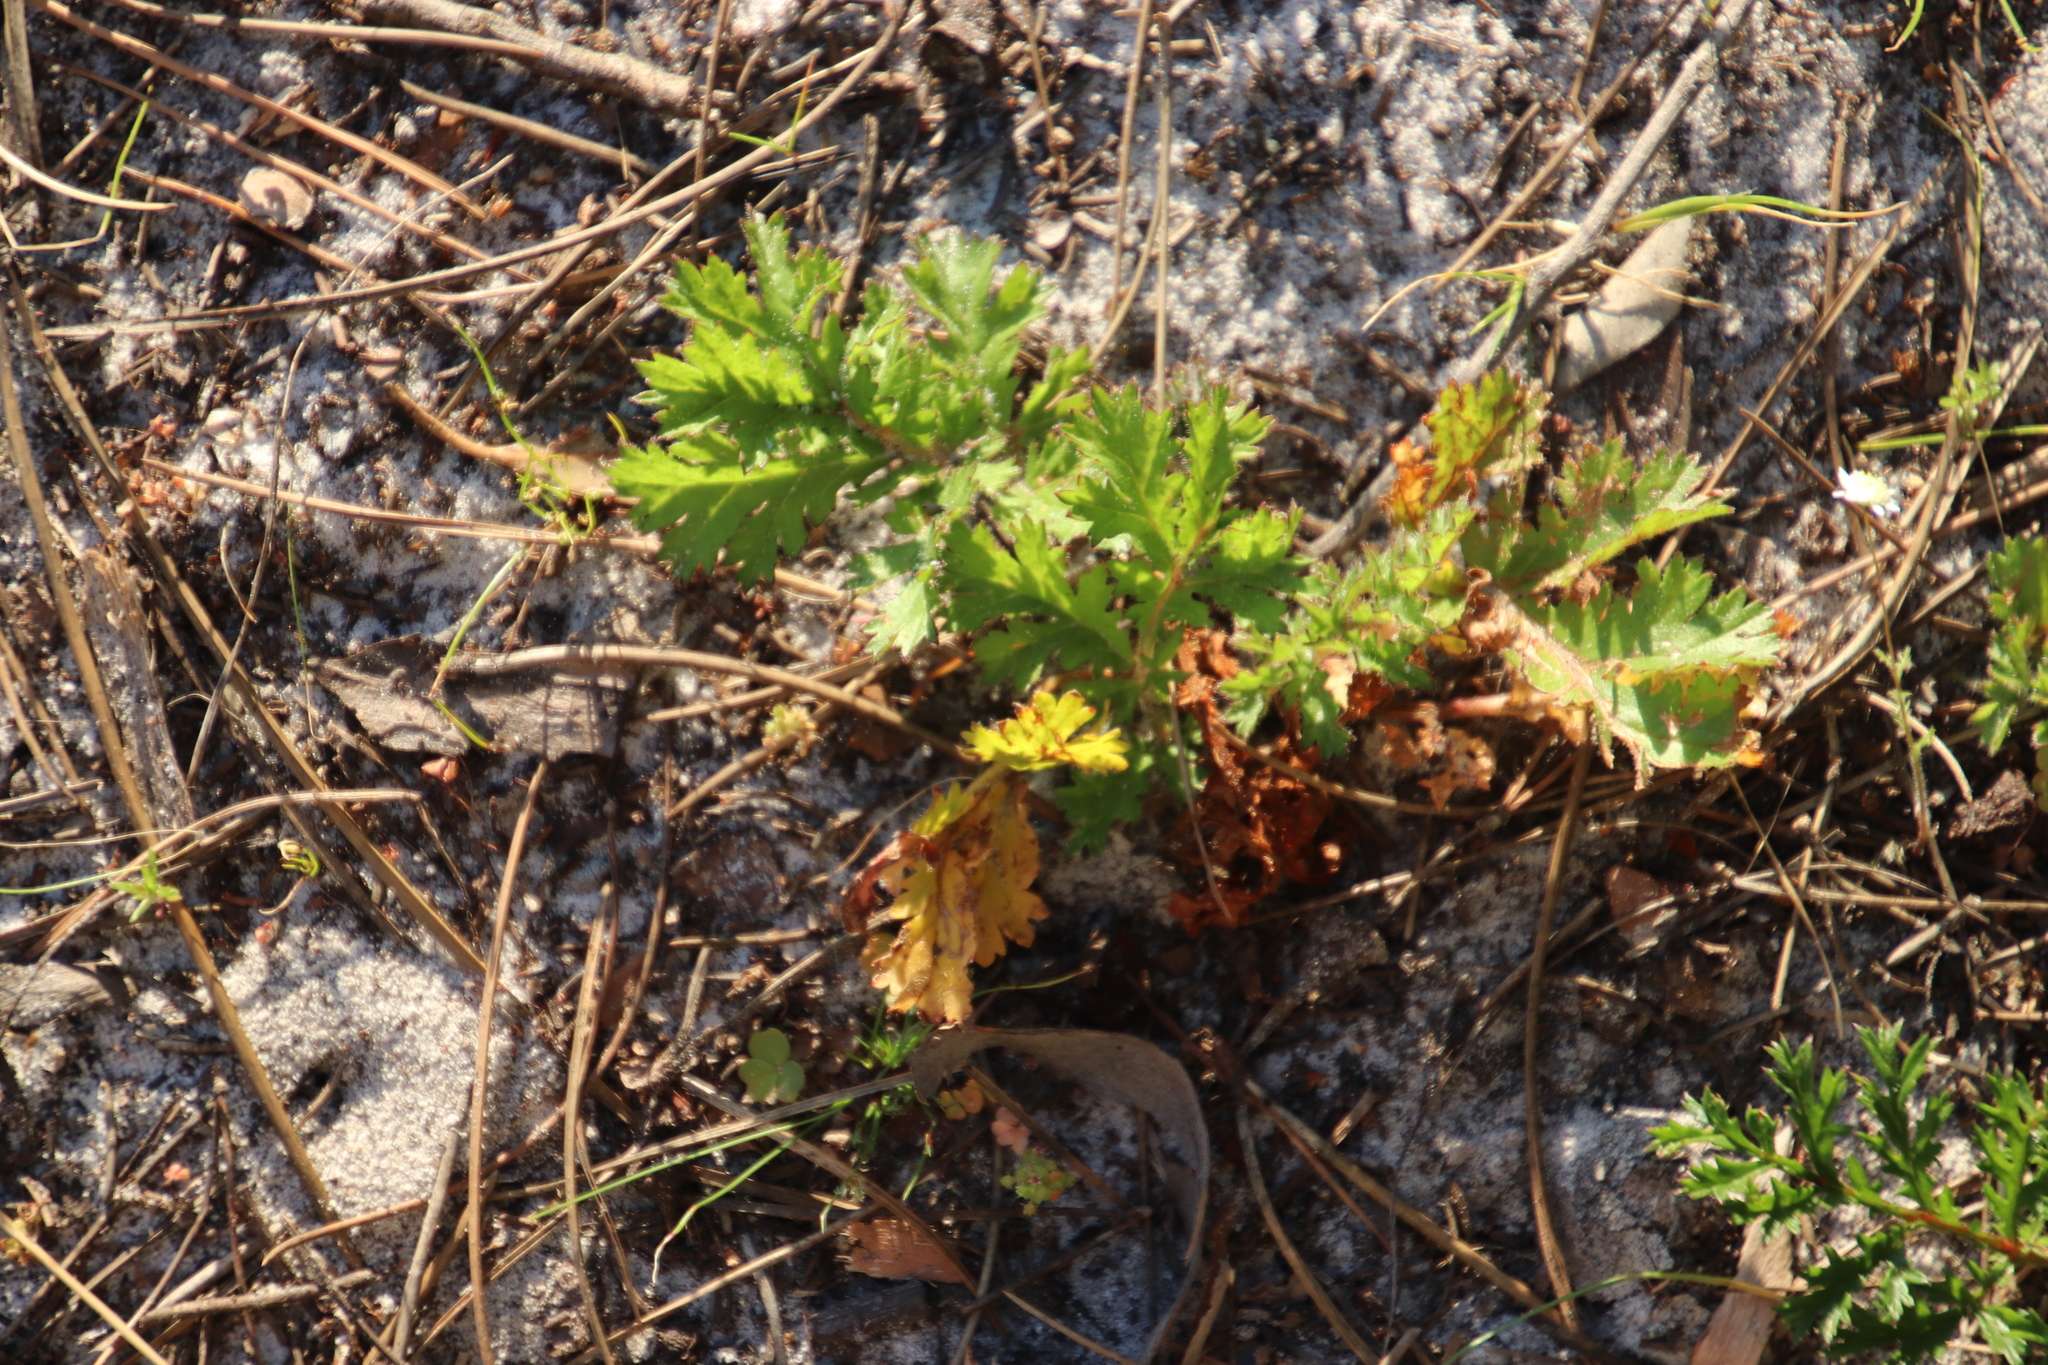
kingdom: Plantae
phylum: Tracheophyta
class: Magnoliopsida
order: Geraniales
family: Geraniaceae
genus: Pelargonium
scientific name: Pelargonium triste
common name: Night-scent pelargonium
